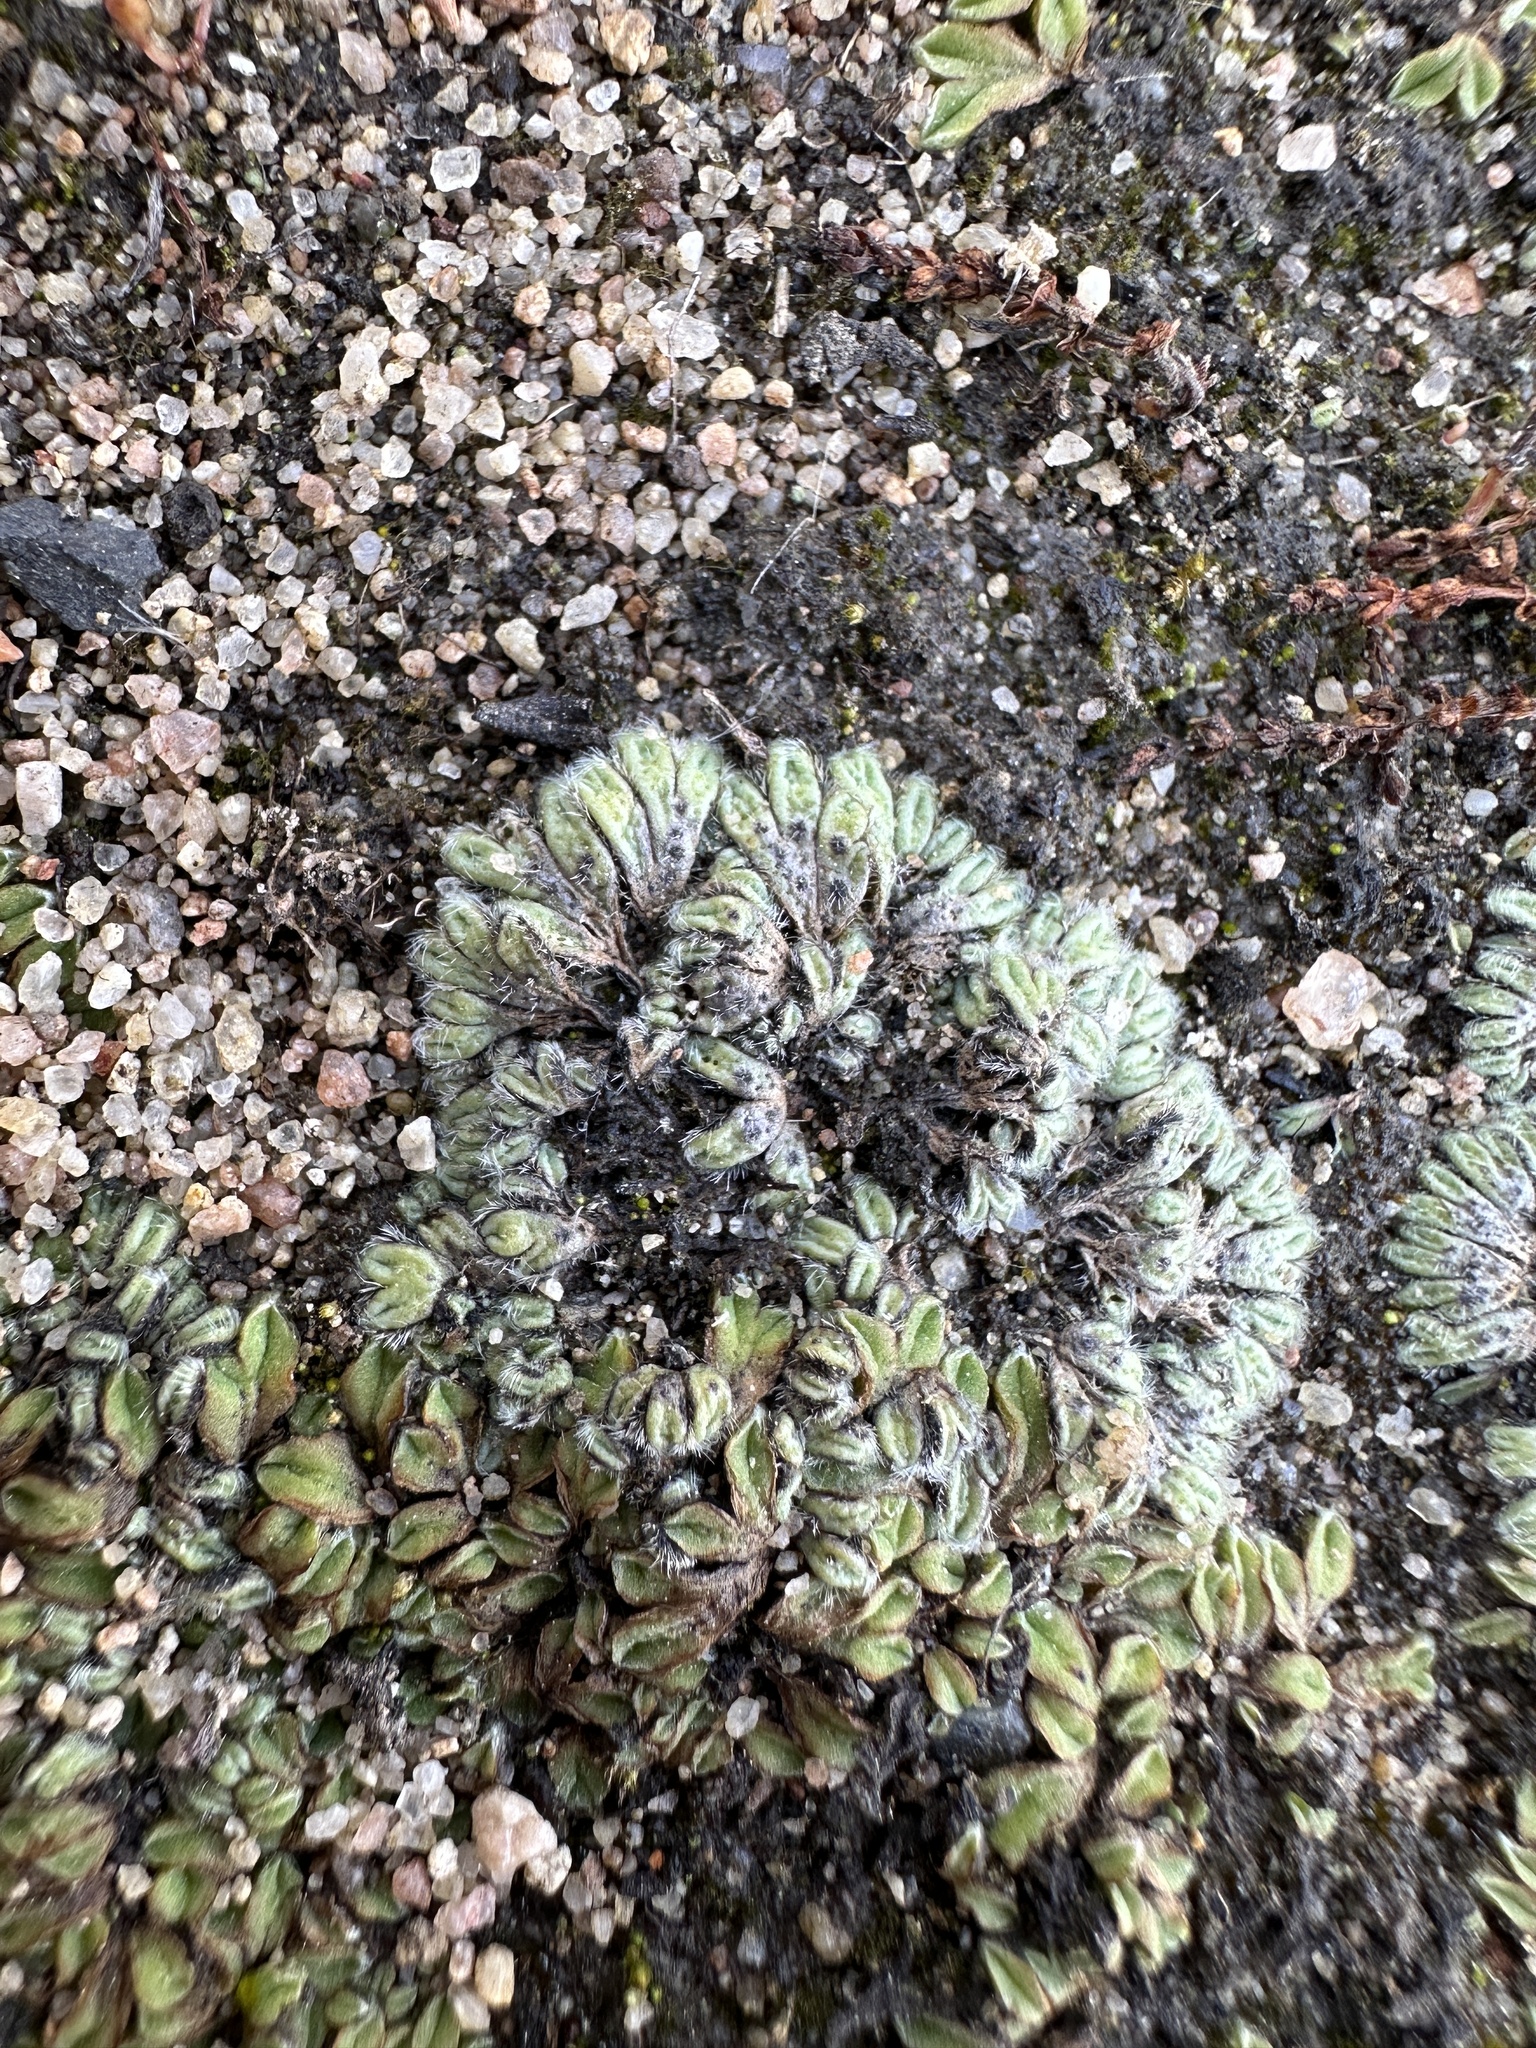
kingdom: Plantae
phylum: Marchantiophyta
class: Marchantiopsida
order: Marchantiales
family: Ricciaceae
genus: Riccia
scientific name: Riccia trichocarpa
